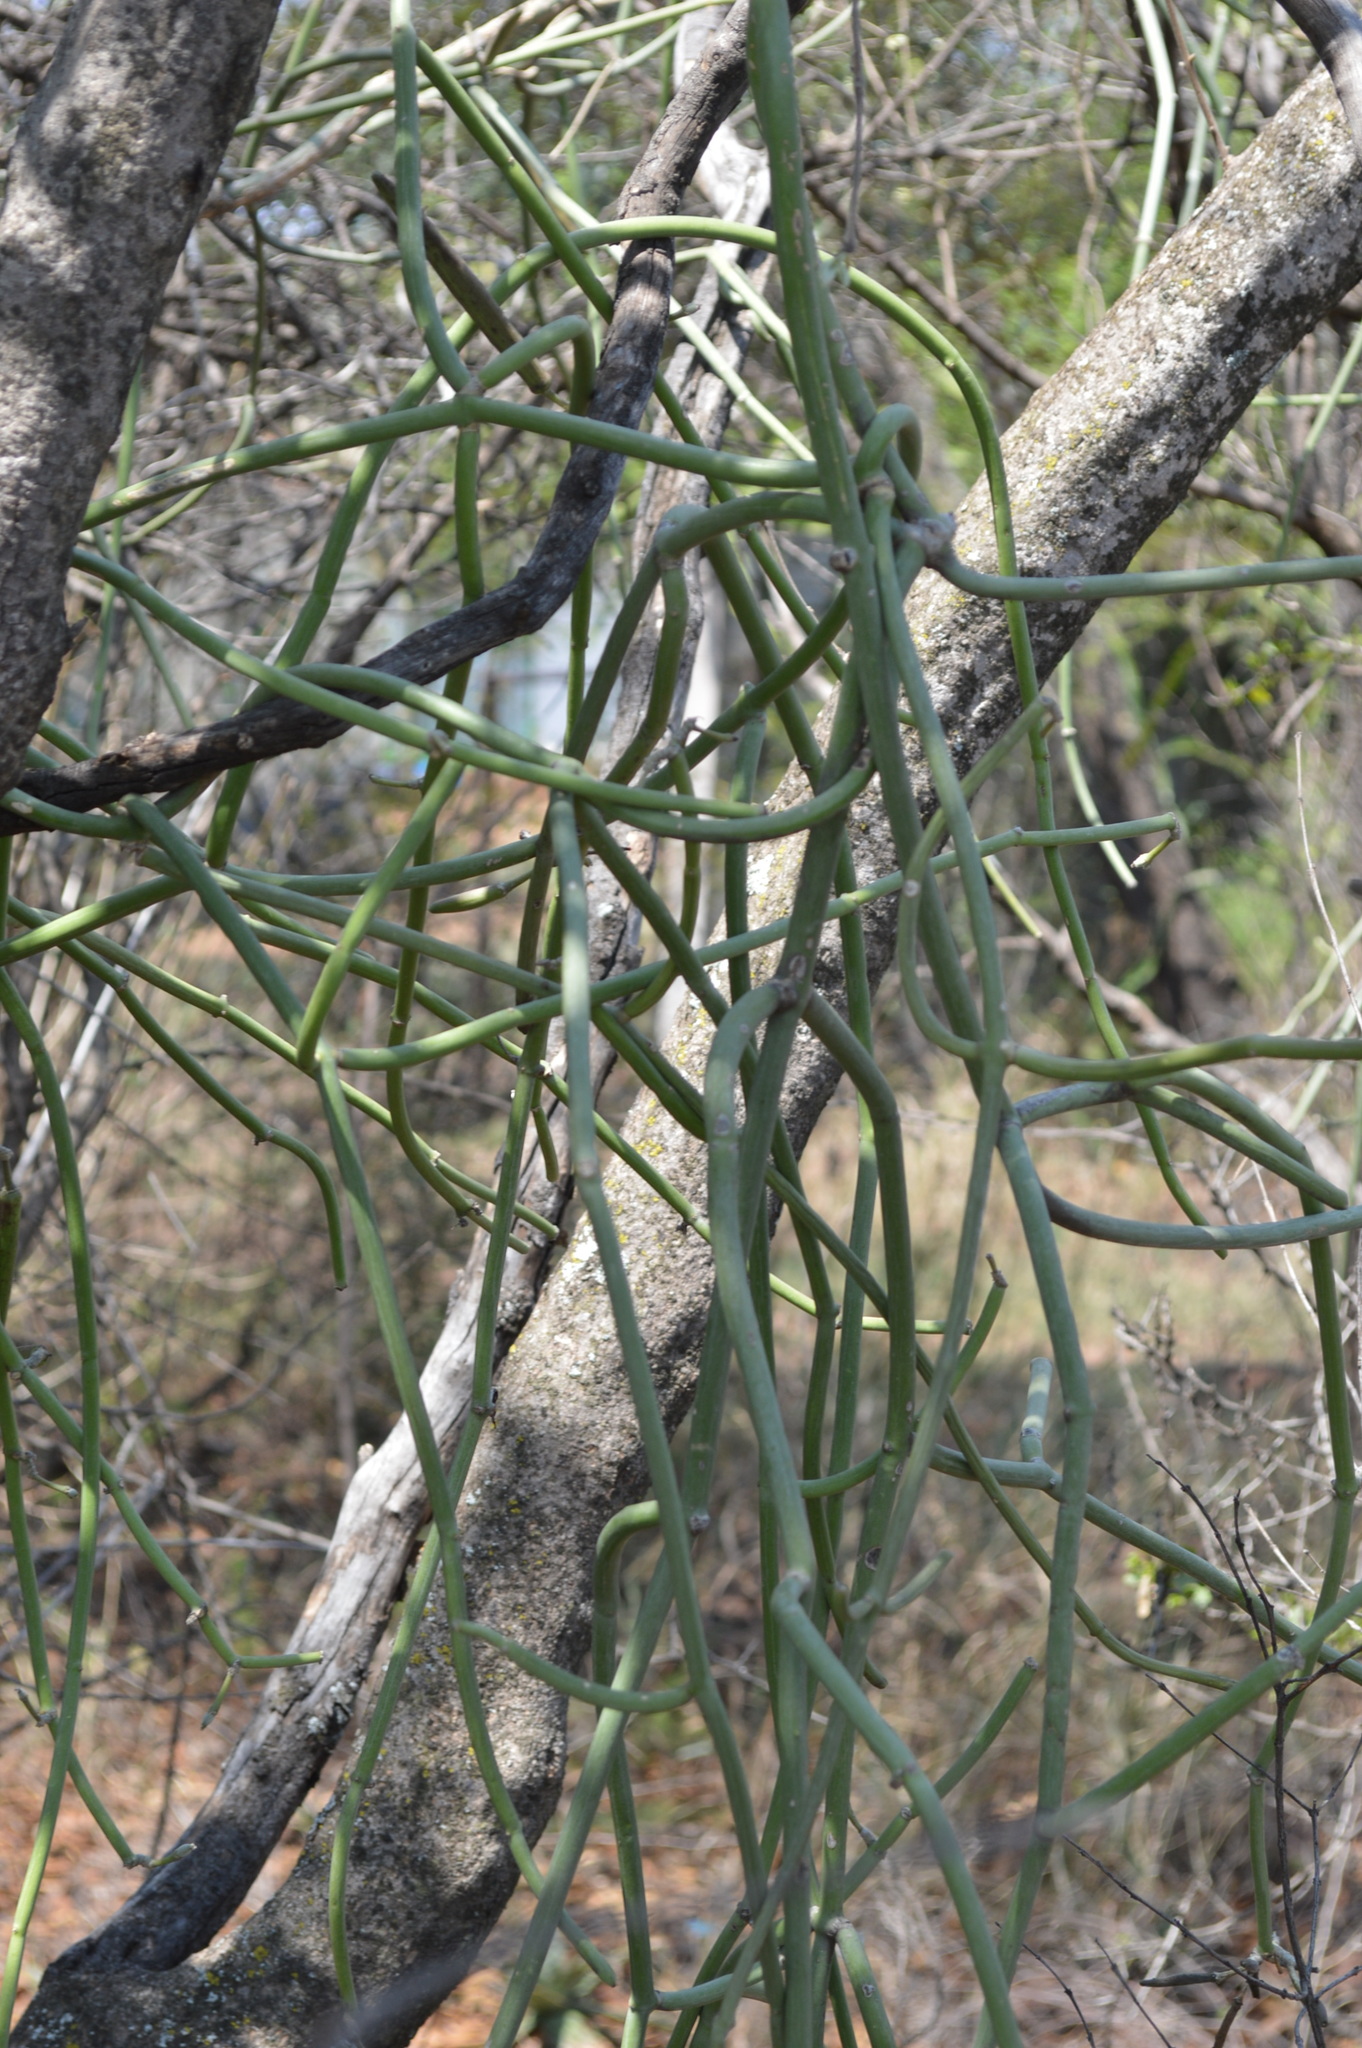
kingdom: Plantae
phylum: Tracheophyta
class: Magnoliopsida
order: Gentianales
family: Apocynaceae
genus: Cynanchum
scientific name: Cynanchum viminale
